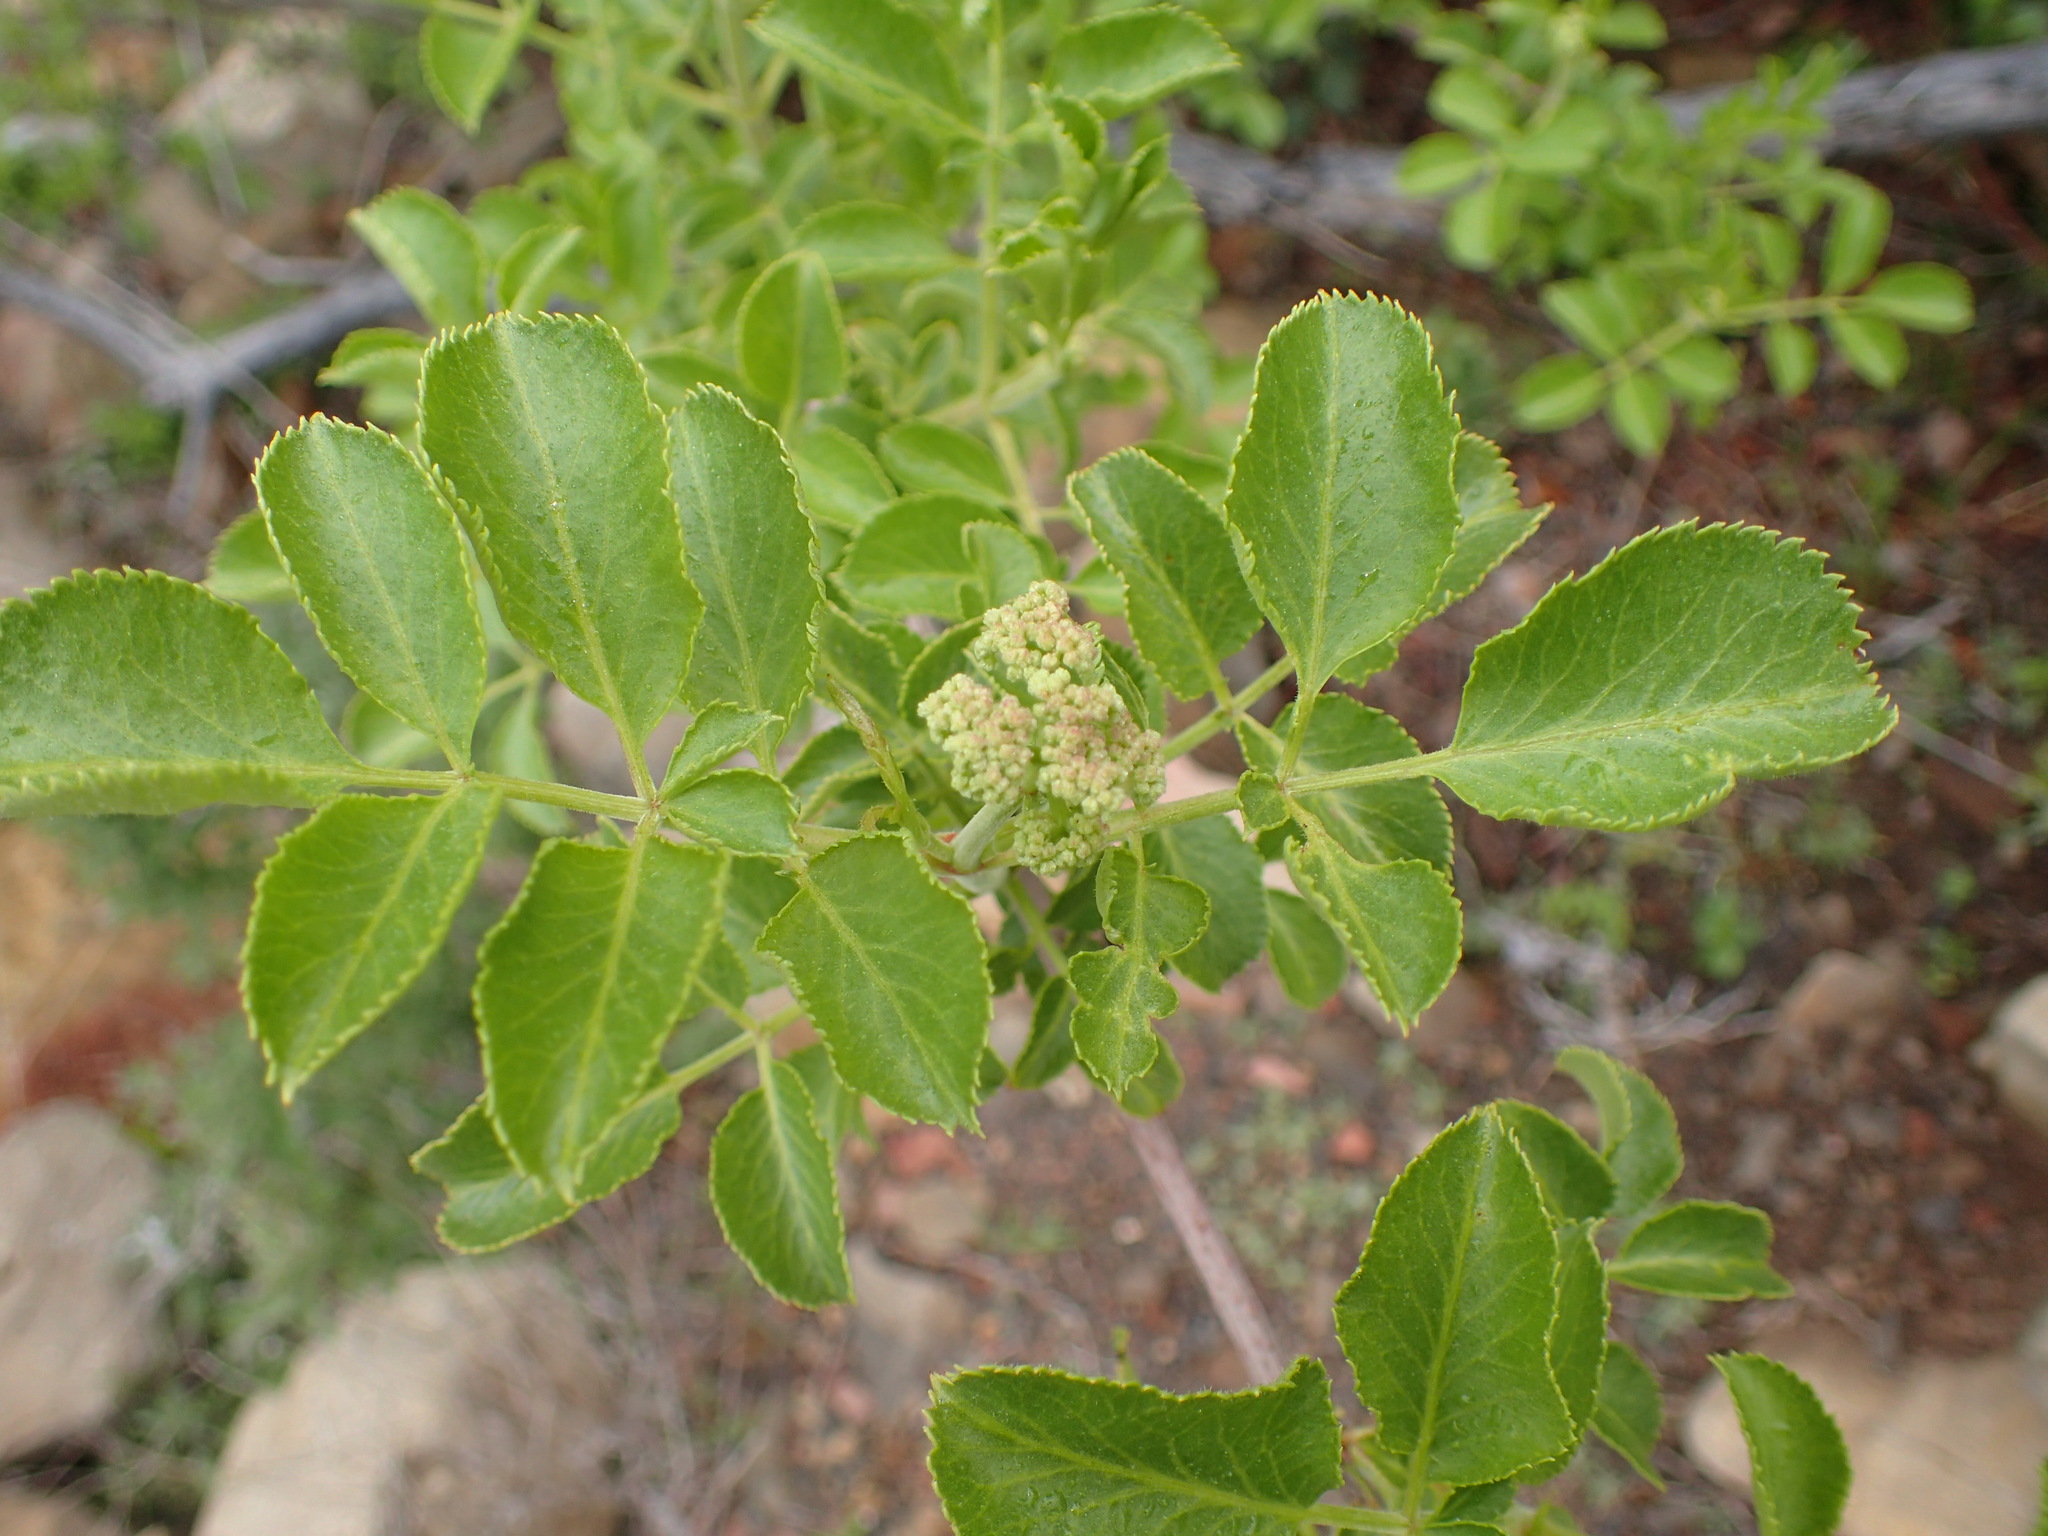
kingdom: Plantae
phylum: Tracheophyta
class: Magnoliopsida
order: Dipsacales
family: Viburnaceae
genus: Sambucus
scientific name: Sambucus cerulea
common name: Blue elder
